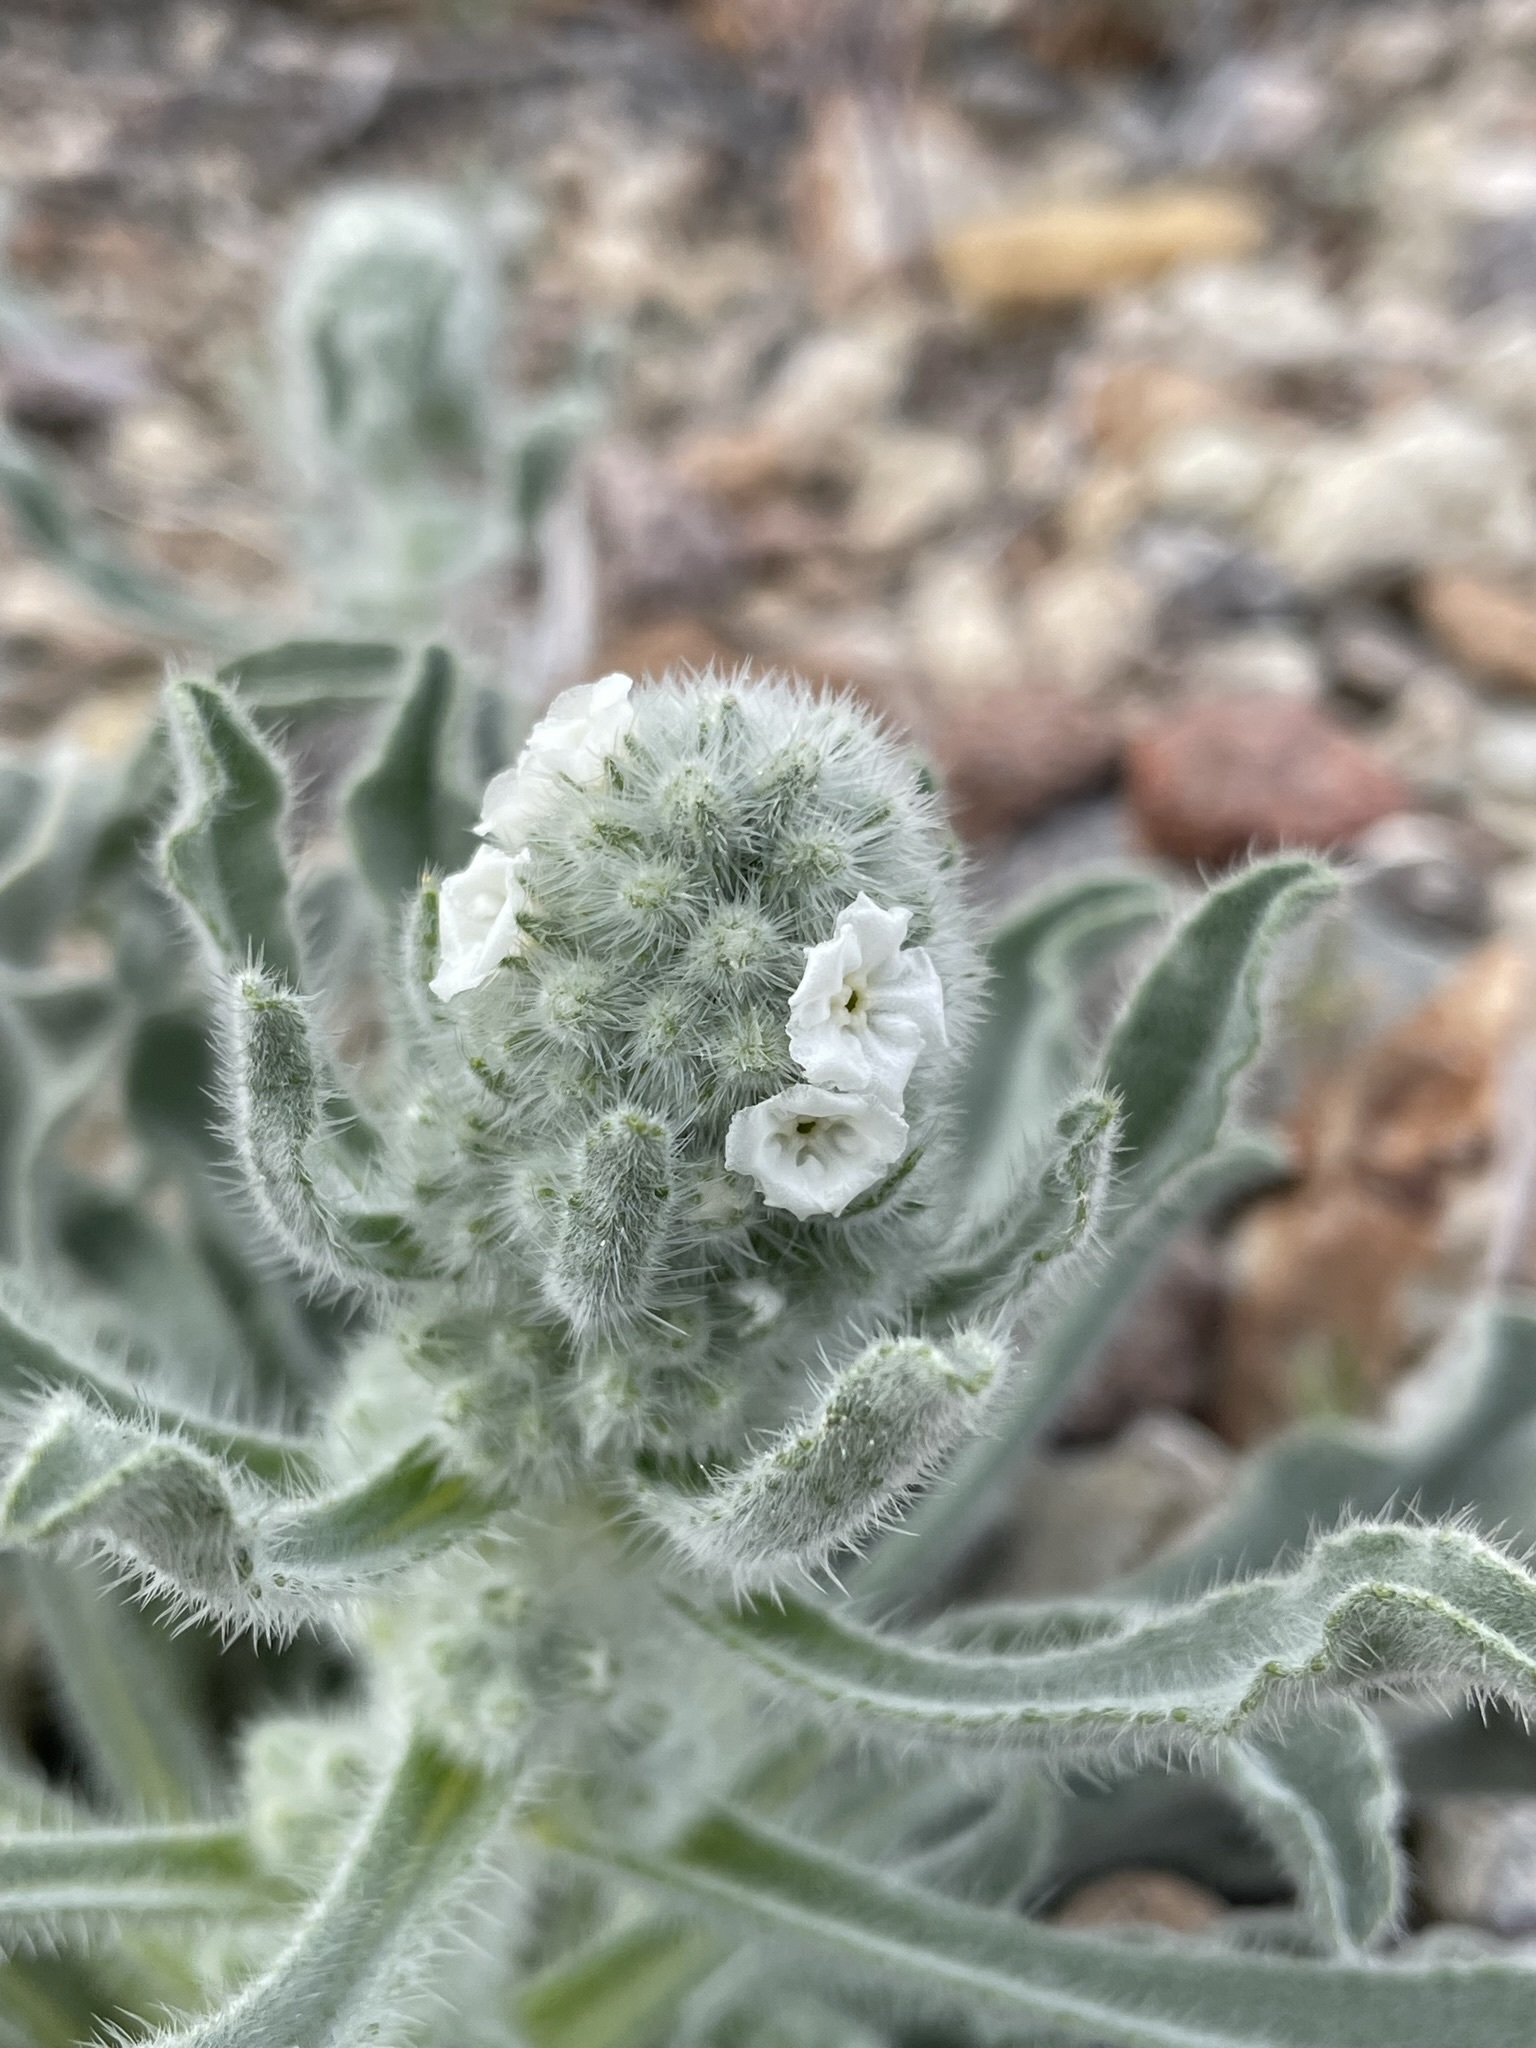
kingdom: Plantae
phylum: Tracheophyta
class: Magnoliopsida
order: Boraginales
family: Boraginaceae
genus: Oreocarya
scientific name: Oreocarya hoffmannii
